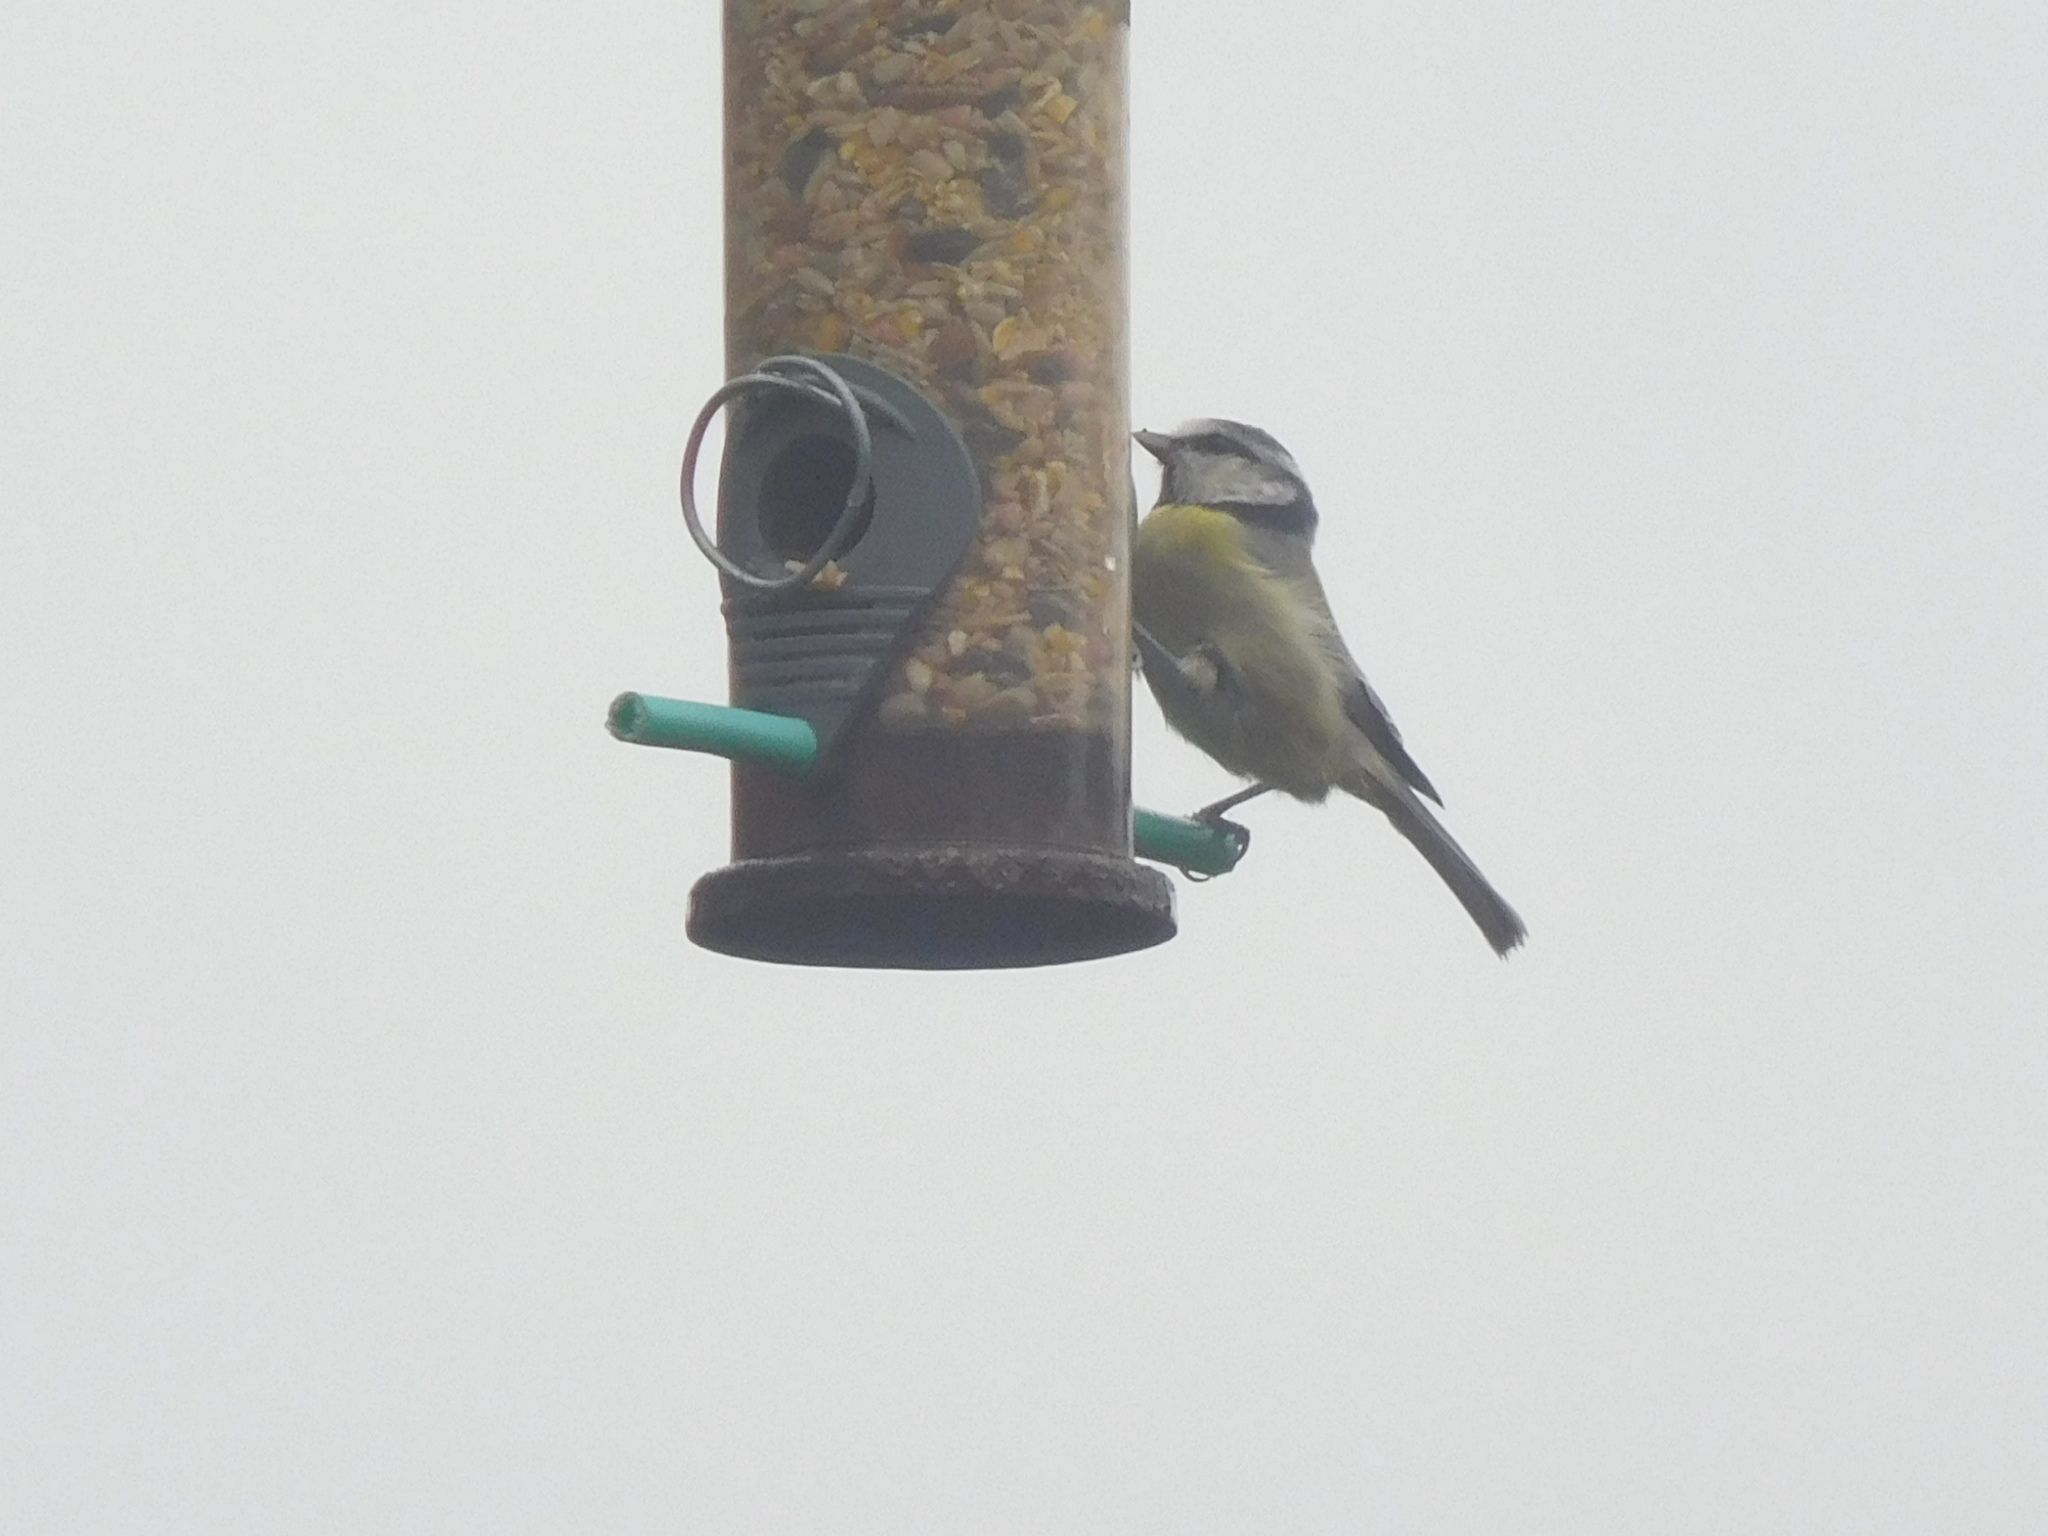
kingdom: Animalia
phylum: Chordata
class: Aves
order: Passeriformes
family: Paridae
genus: Cyanistes
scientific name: Cyanistes caeruleus
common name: Eurasian blue tit
